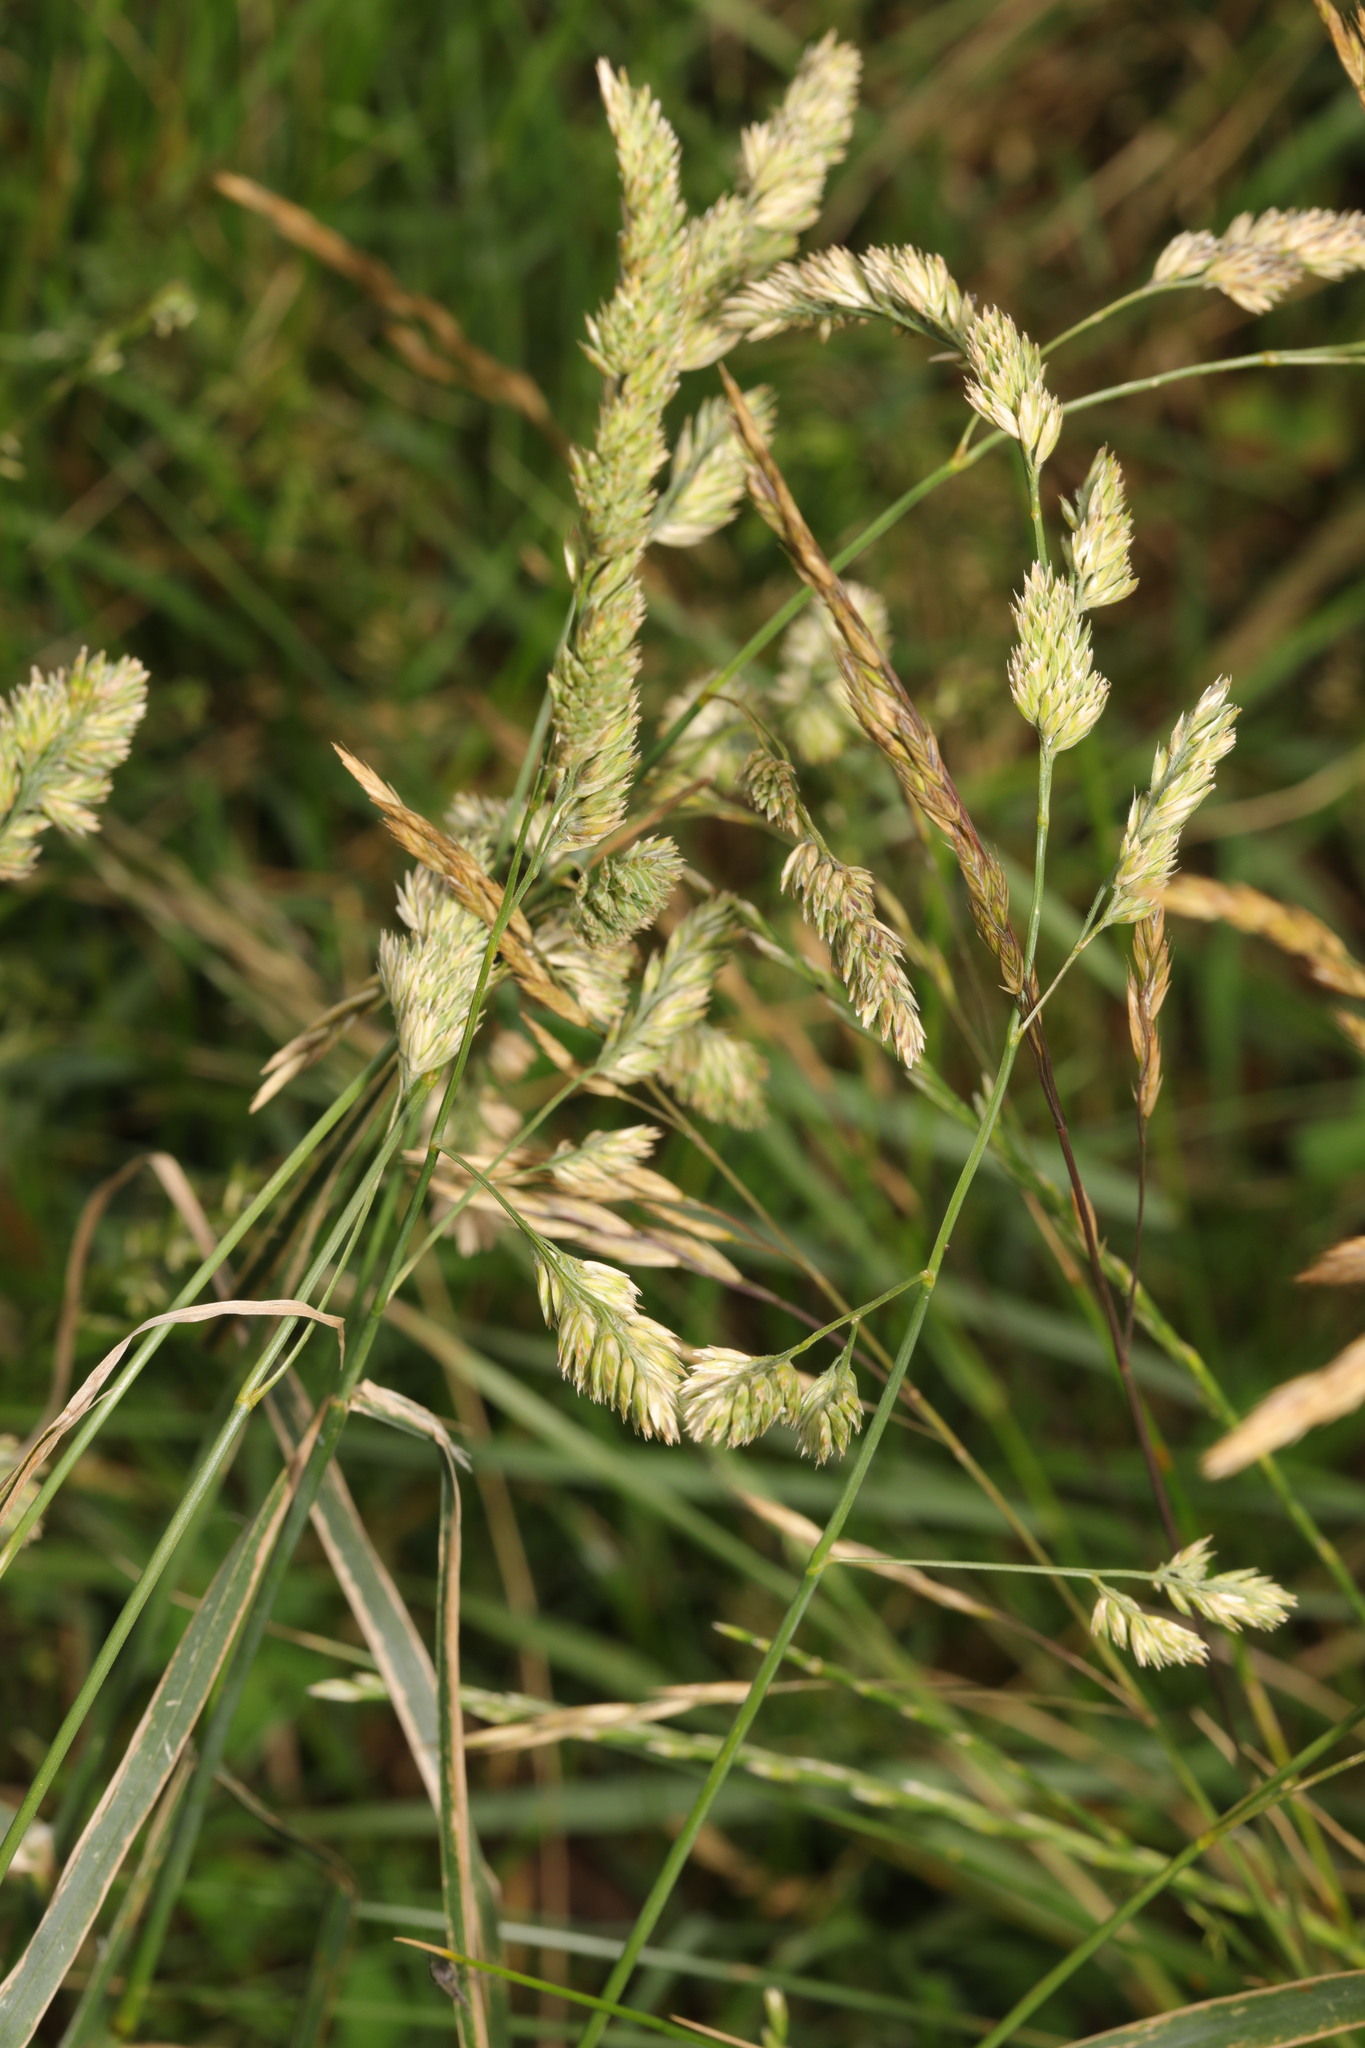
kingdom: Plantae
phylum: Tracheophyta
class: Liliopsida
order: Poales
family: Poaceae
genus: Dactylis
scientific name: Dactylis glomerata
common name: Orchardgrass
